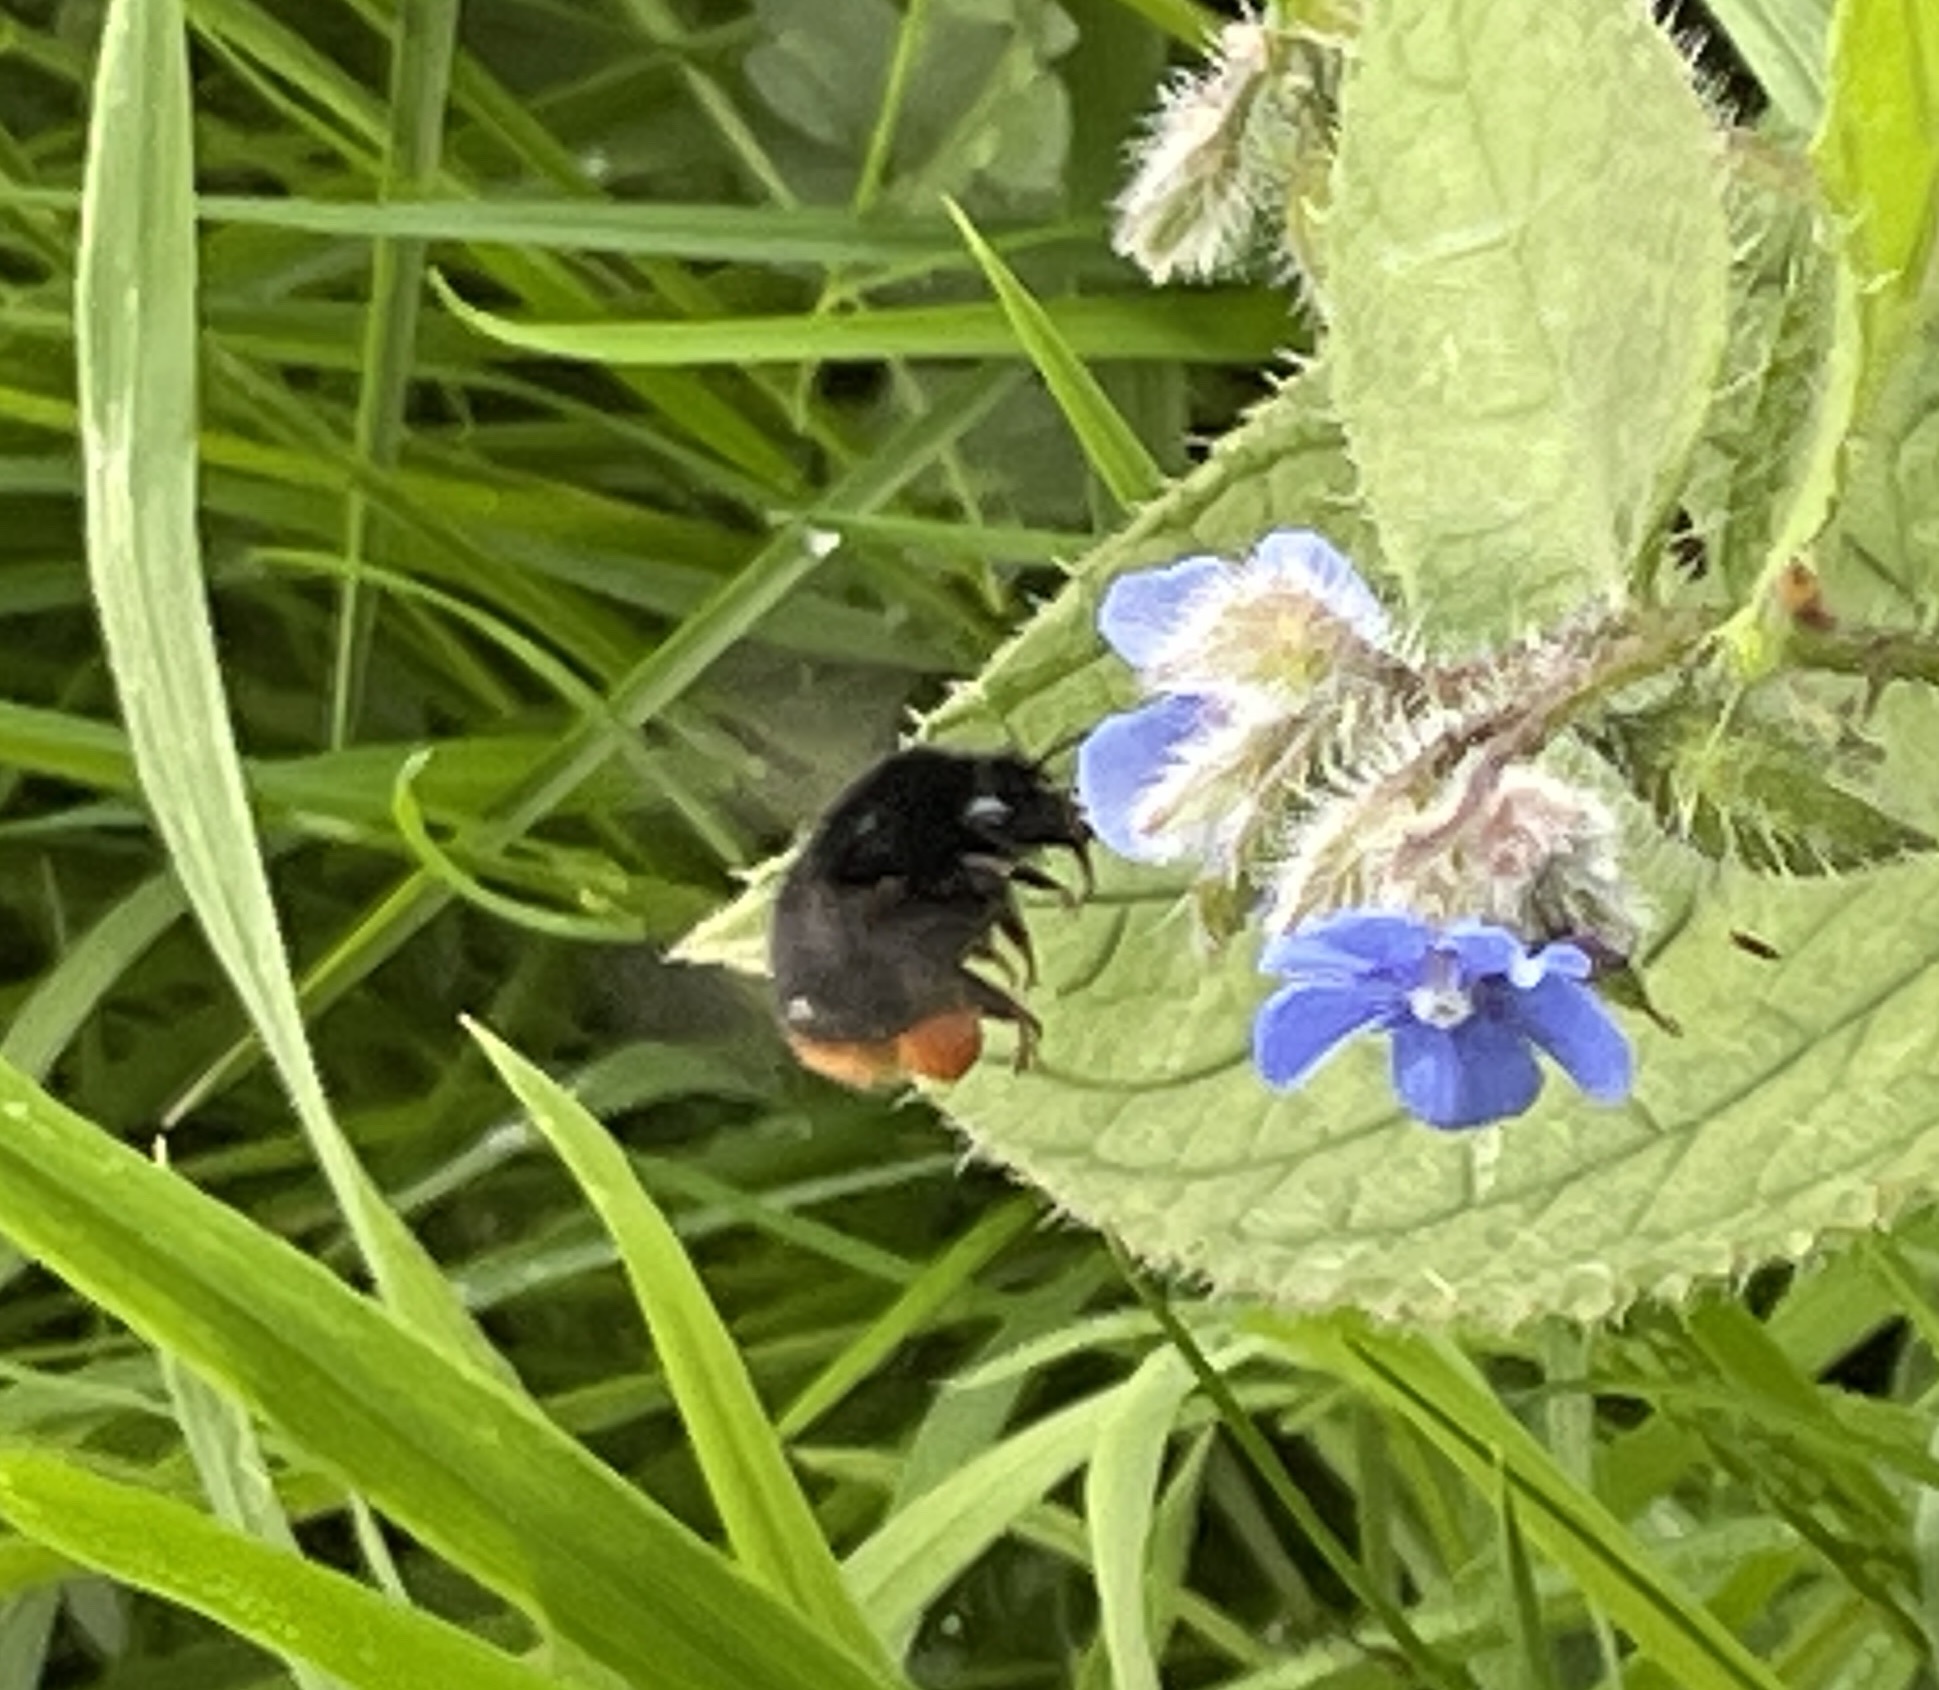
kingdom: Animalia
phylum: Arthropoda
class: Insecta
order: Hymenoptera
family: Apidae
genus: Bombus
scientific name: Bombus lapidarius
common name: Large red-tailed humble-bee
